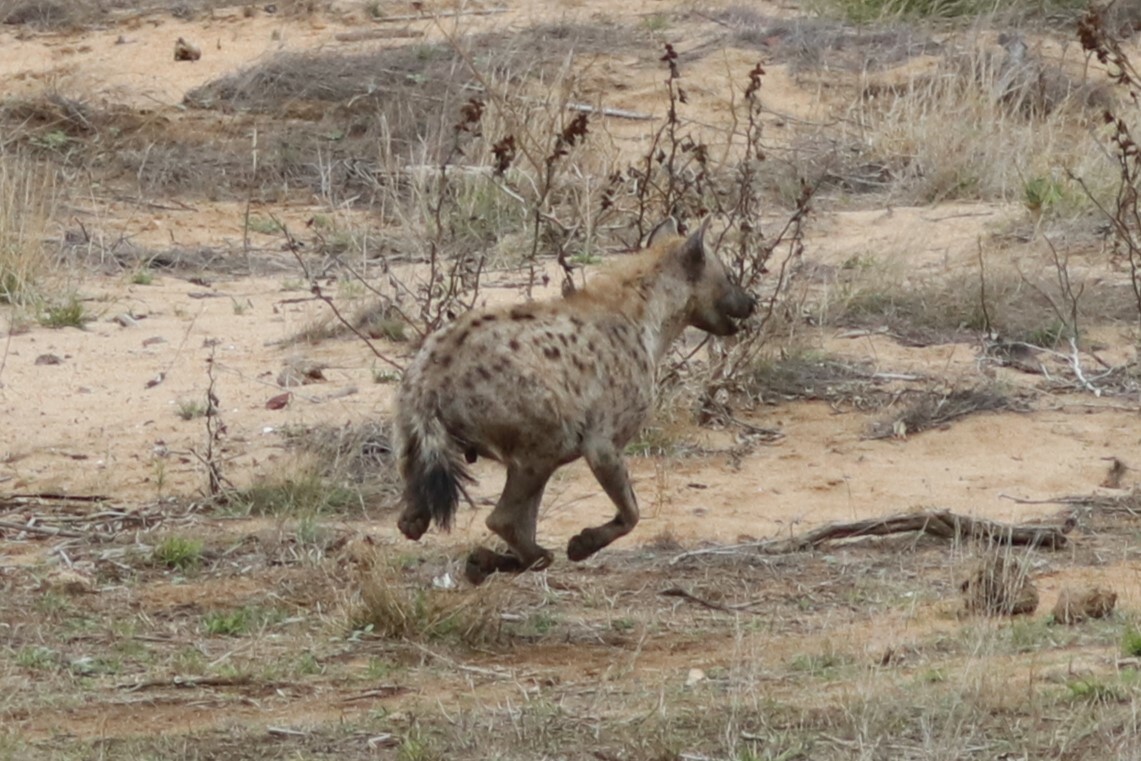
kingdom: Animalia
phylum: Chordata
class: Mammalia
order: Carnivora
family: Hyaenidae
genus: Crocuta
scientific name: Crocuta crocuta
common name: Spotted hyaena
